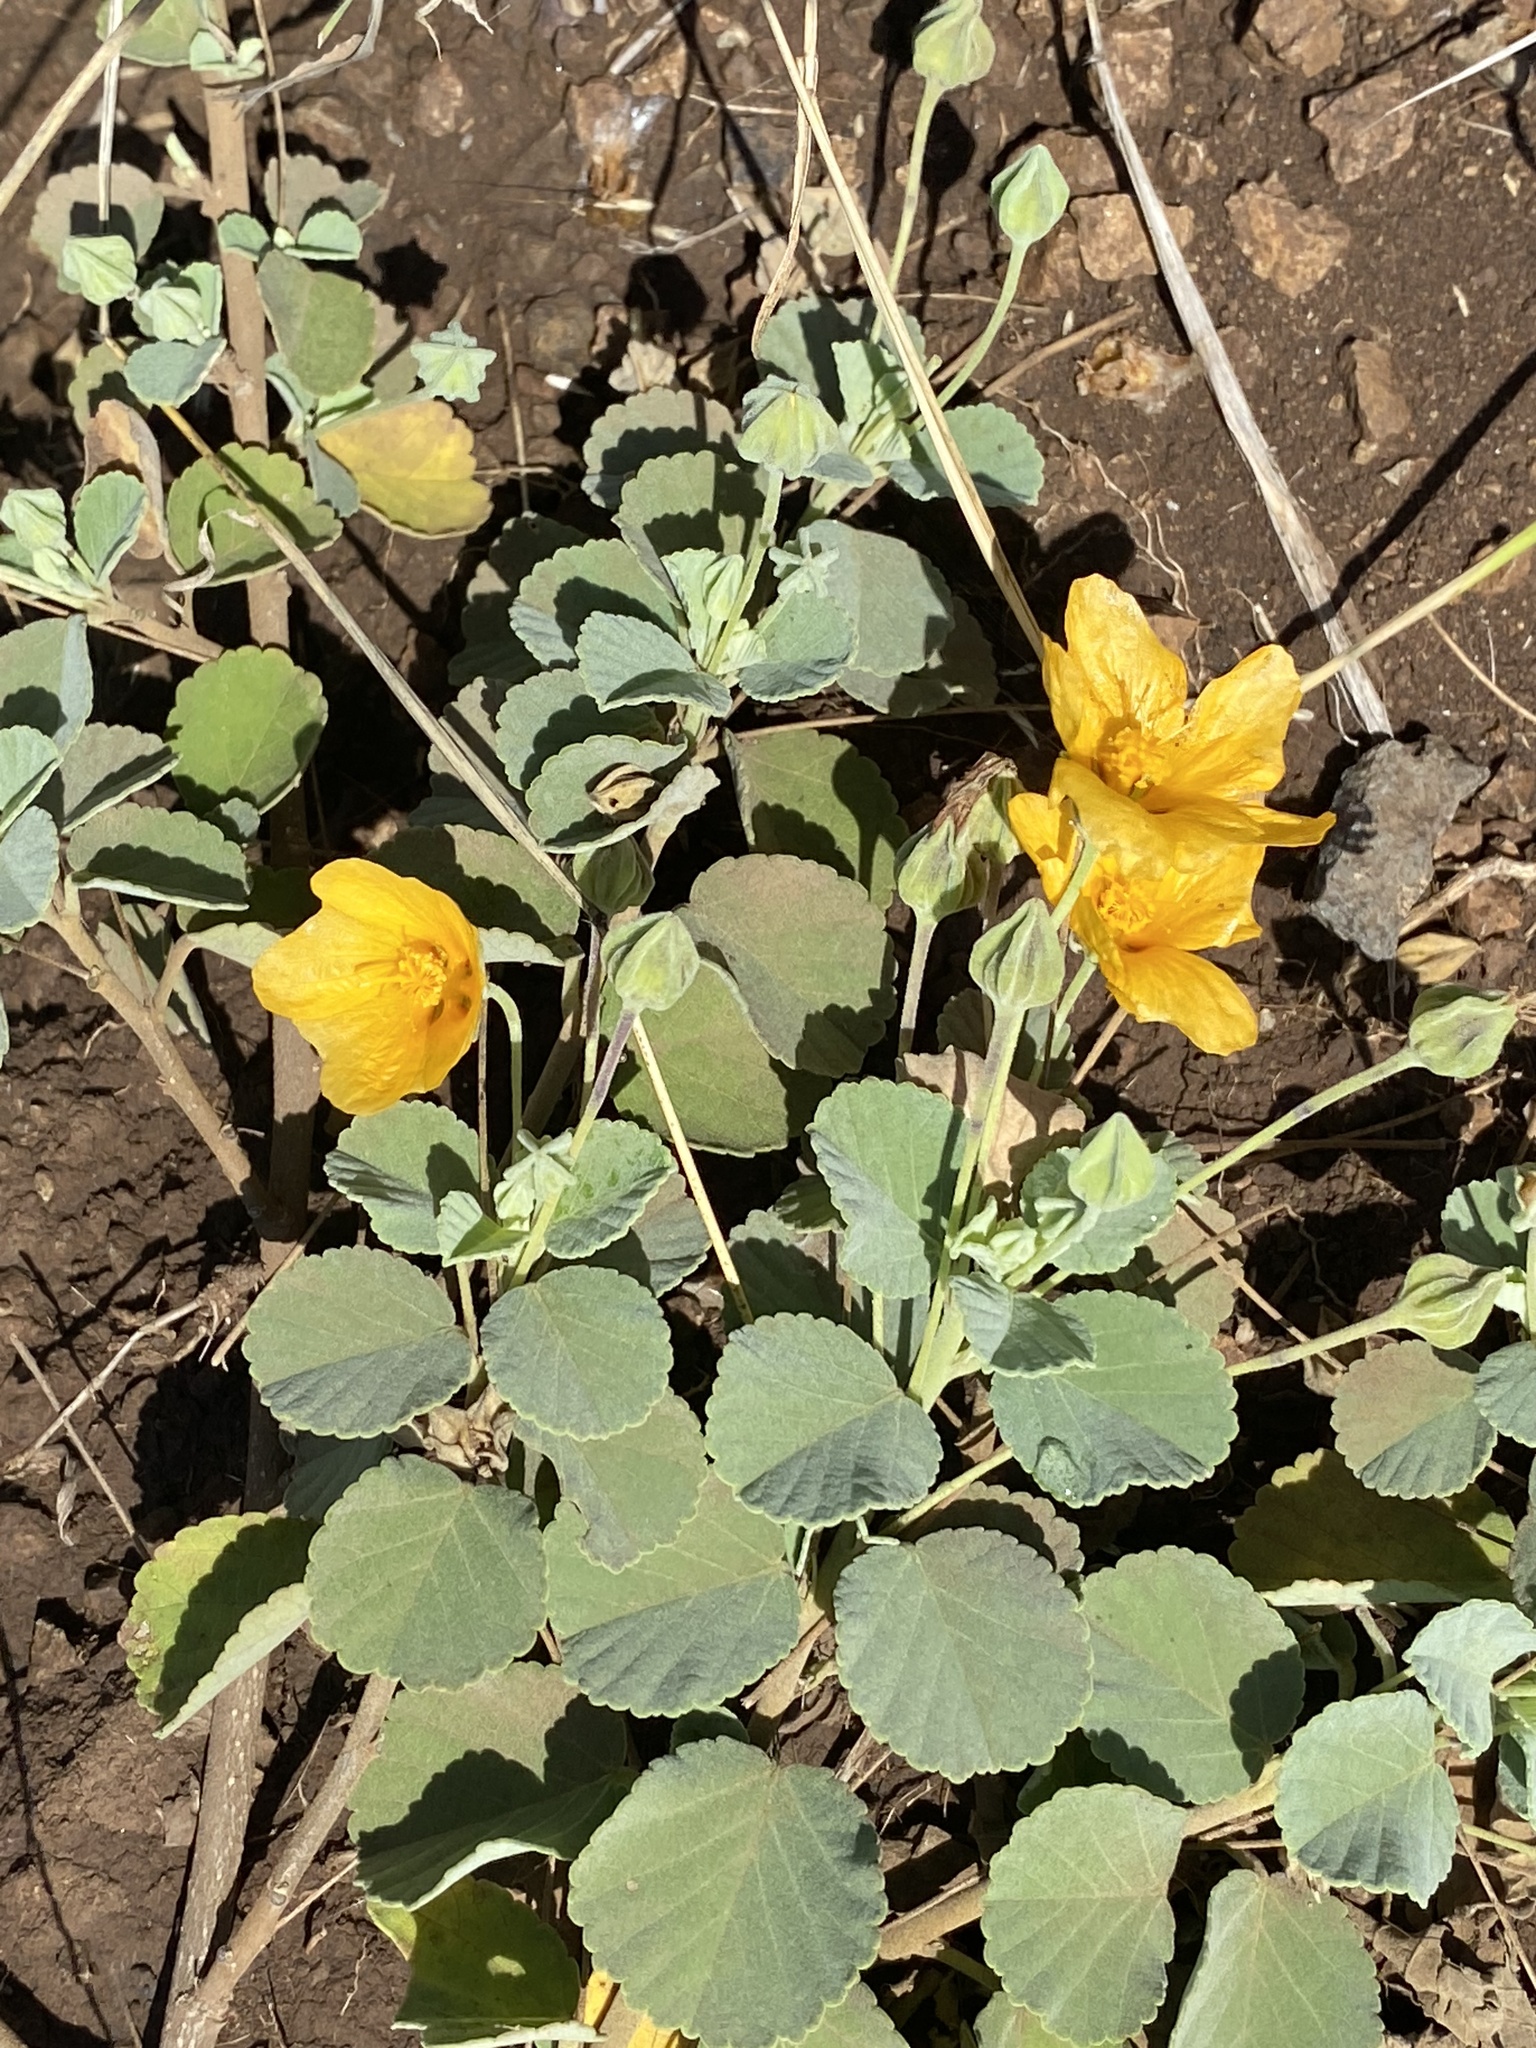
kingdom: Plantae
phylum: Tracheophyta
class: Magnoliopsida
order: Malvales
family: Malvaceae
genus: Sida
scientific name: Sida fallax
